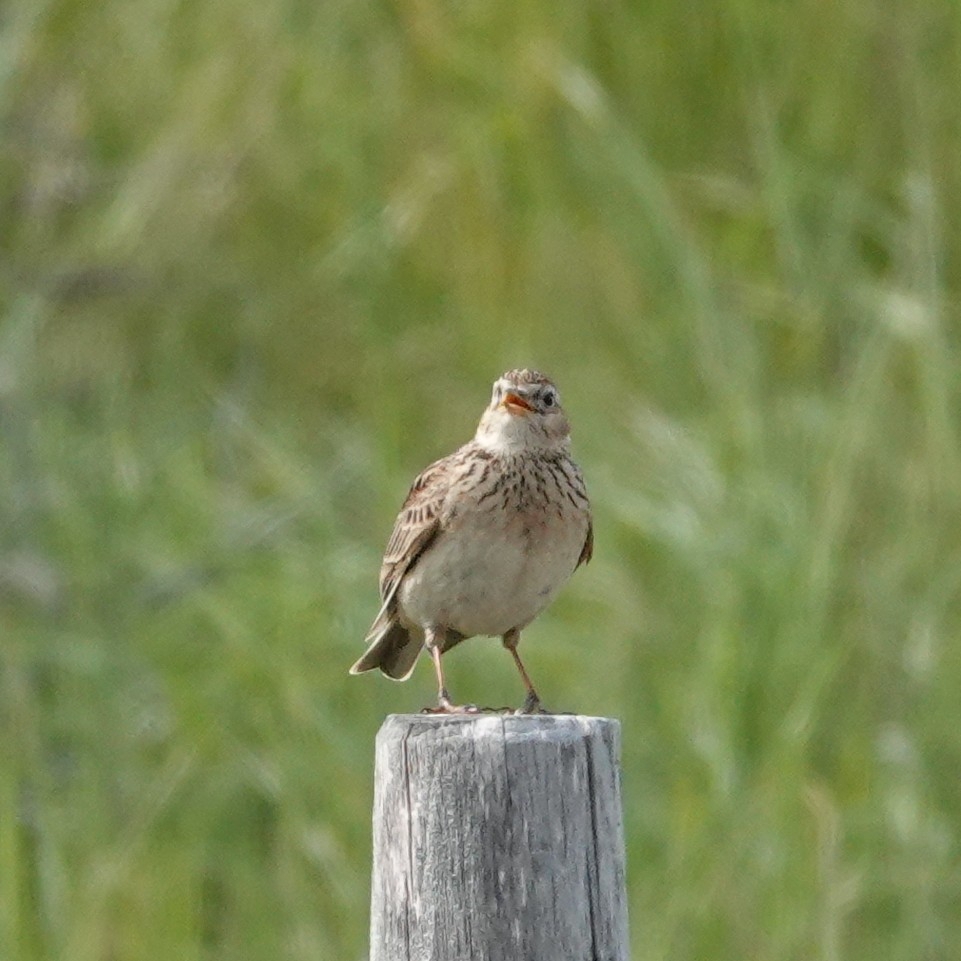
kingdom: Animalia
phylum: Chordata
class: Aves
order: Passeriformes
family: Alaudidae
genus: Alauda
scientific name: Alauda arvensis
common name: Eurasian skylark
